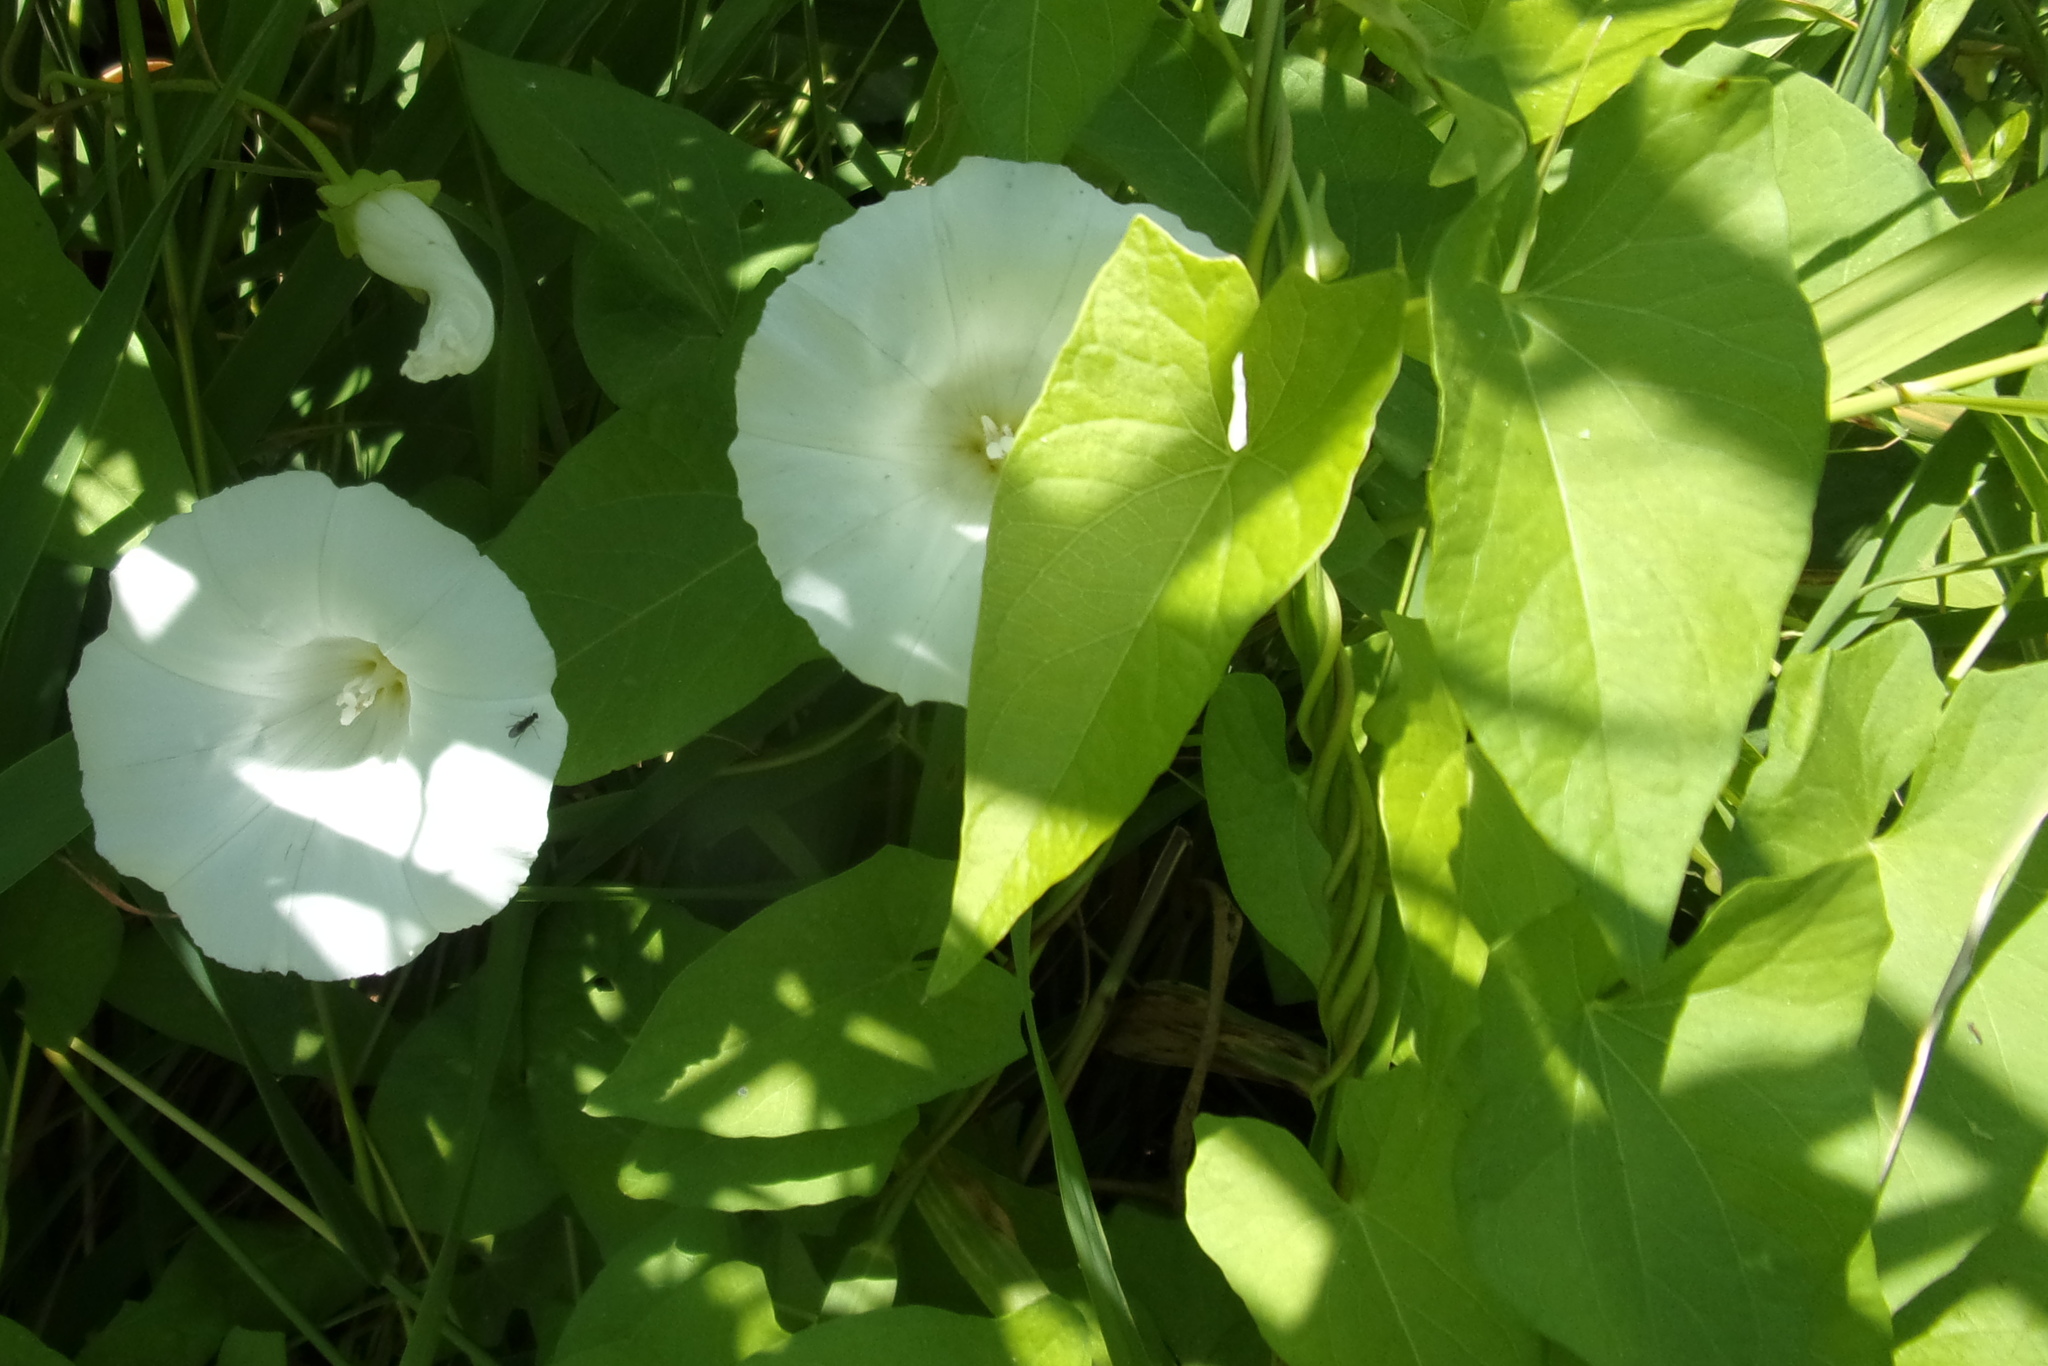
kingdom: Plantae
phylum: Tracheophyta
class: Magnoliopsida
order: Solanales
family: Convolvulaceae
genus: Calystegia
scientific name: Calystegia sepium
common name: Hedge bindweed
